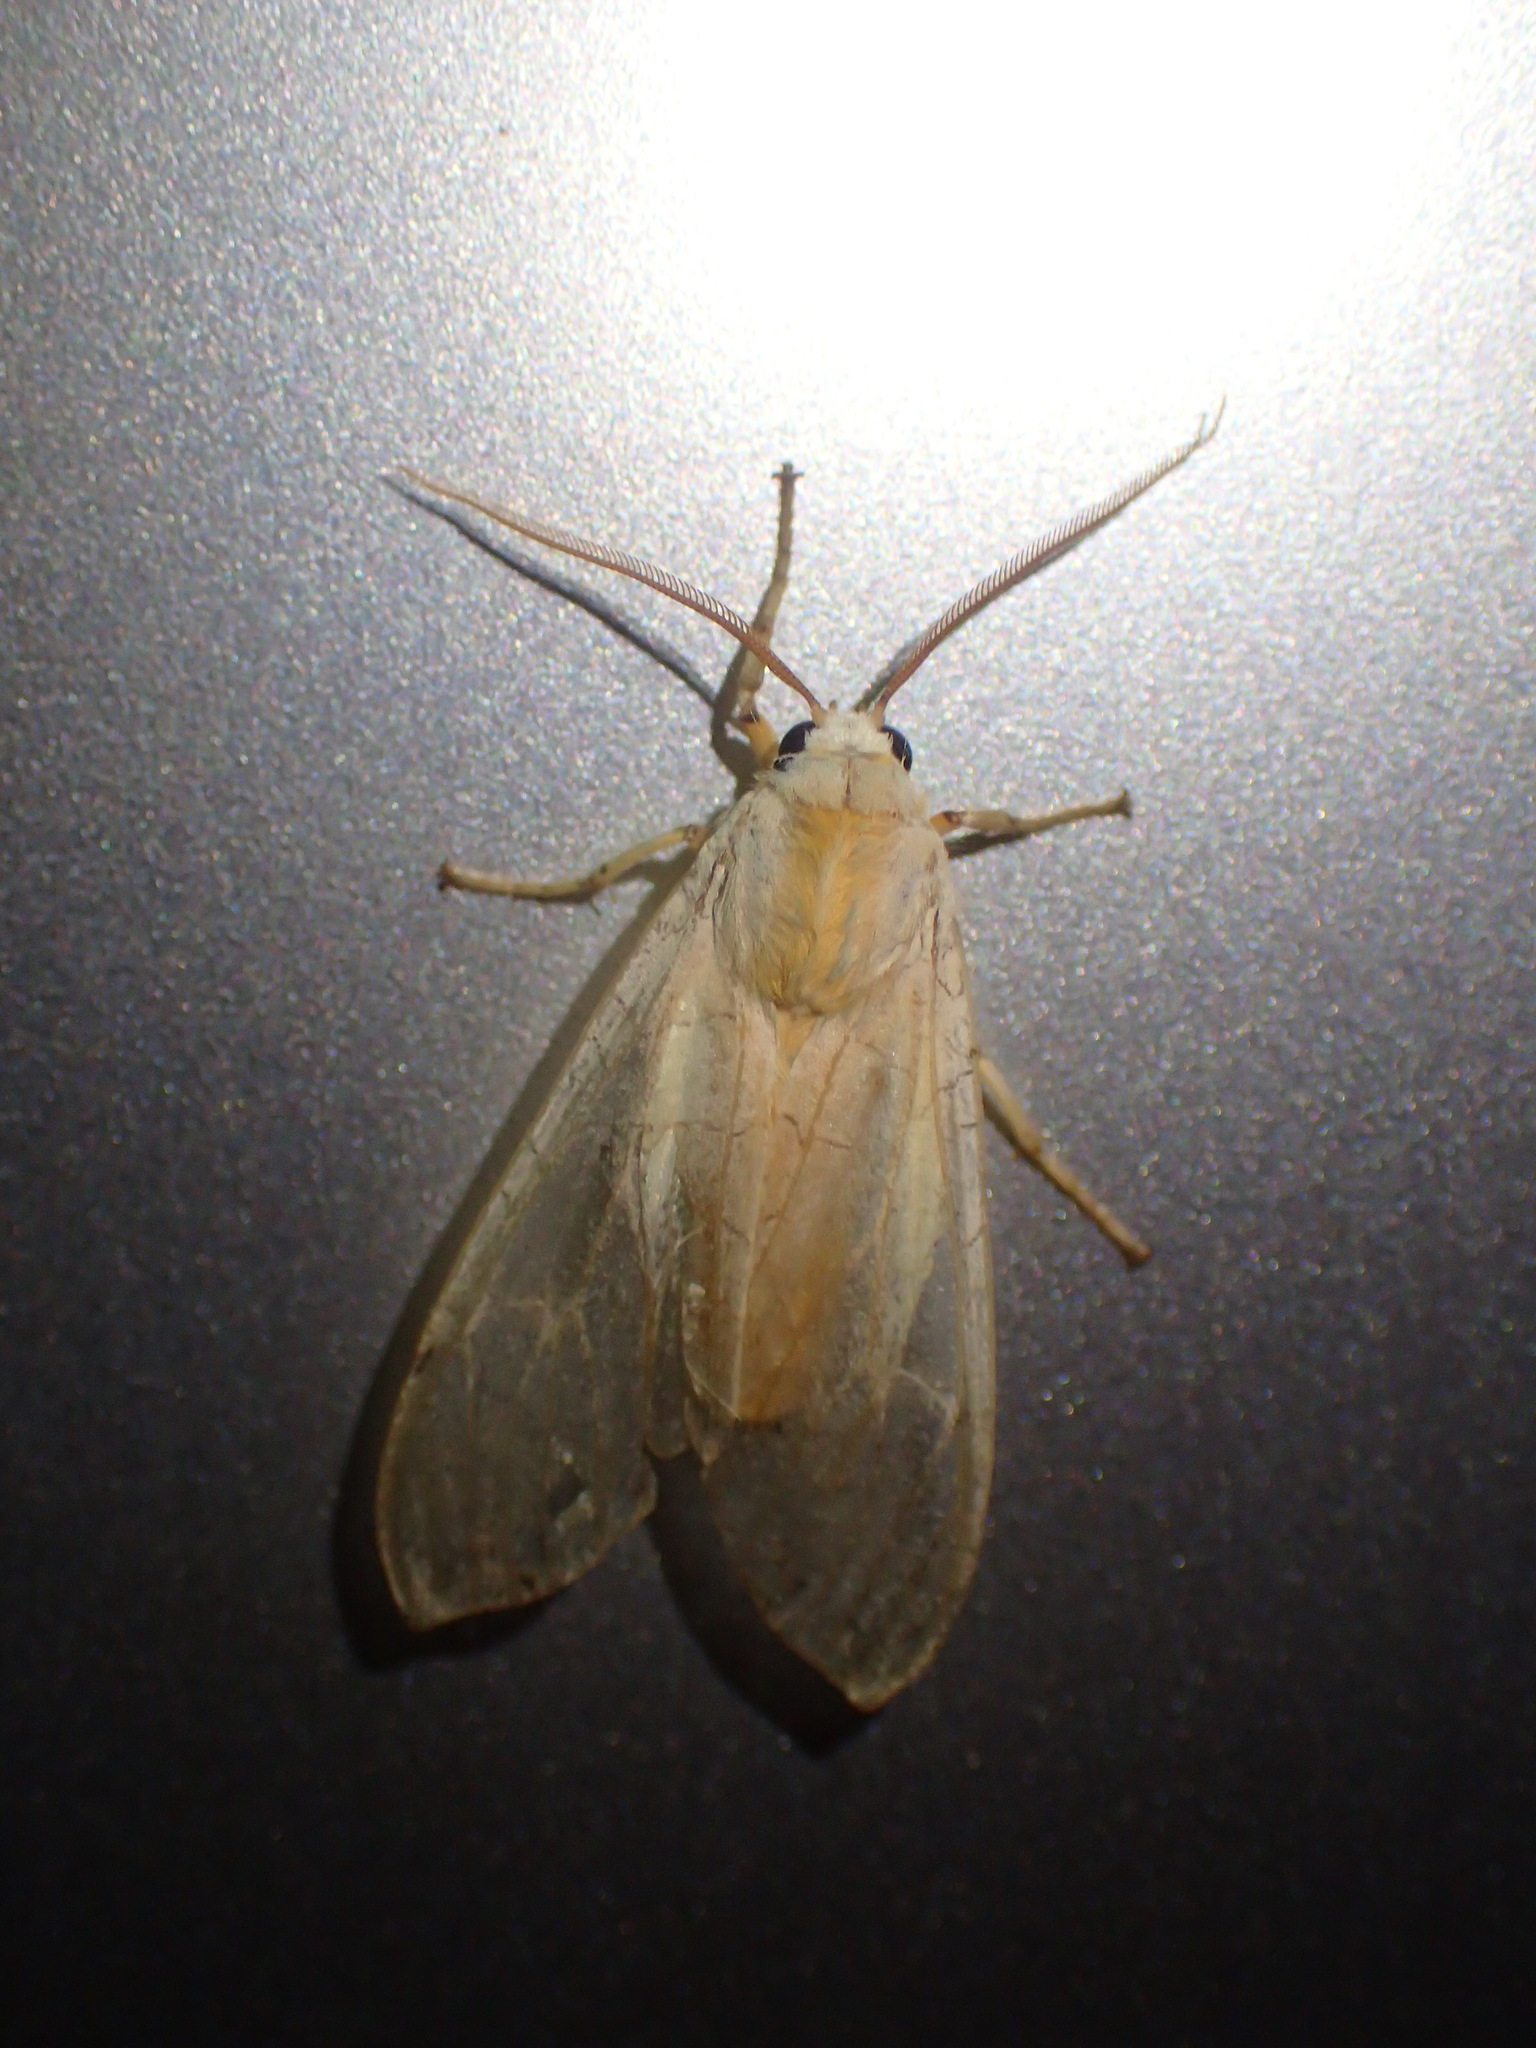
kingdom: Animalia
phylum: Arthropoda
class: Insecta
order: Lepidoptera
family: Erebidae
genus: Halysidota
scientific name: Halysidota tessellaris
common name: Banded tussock moth
